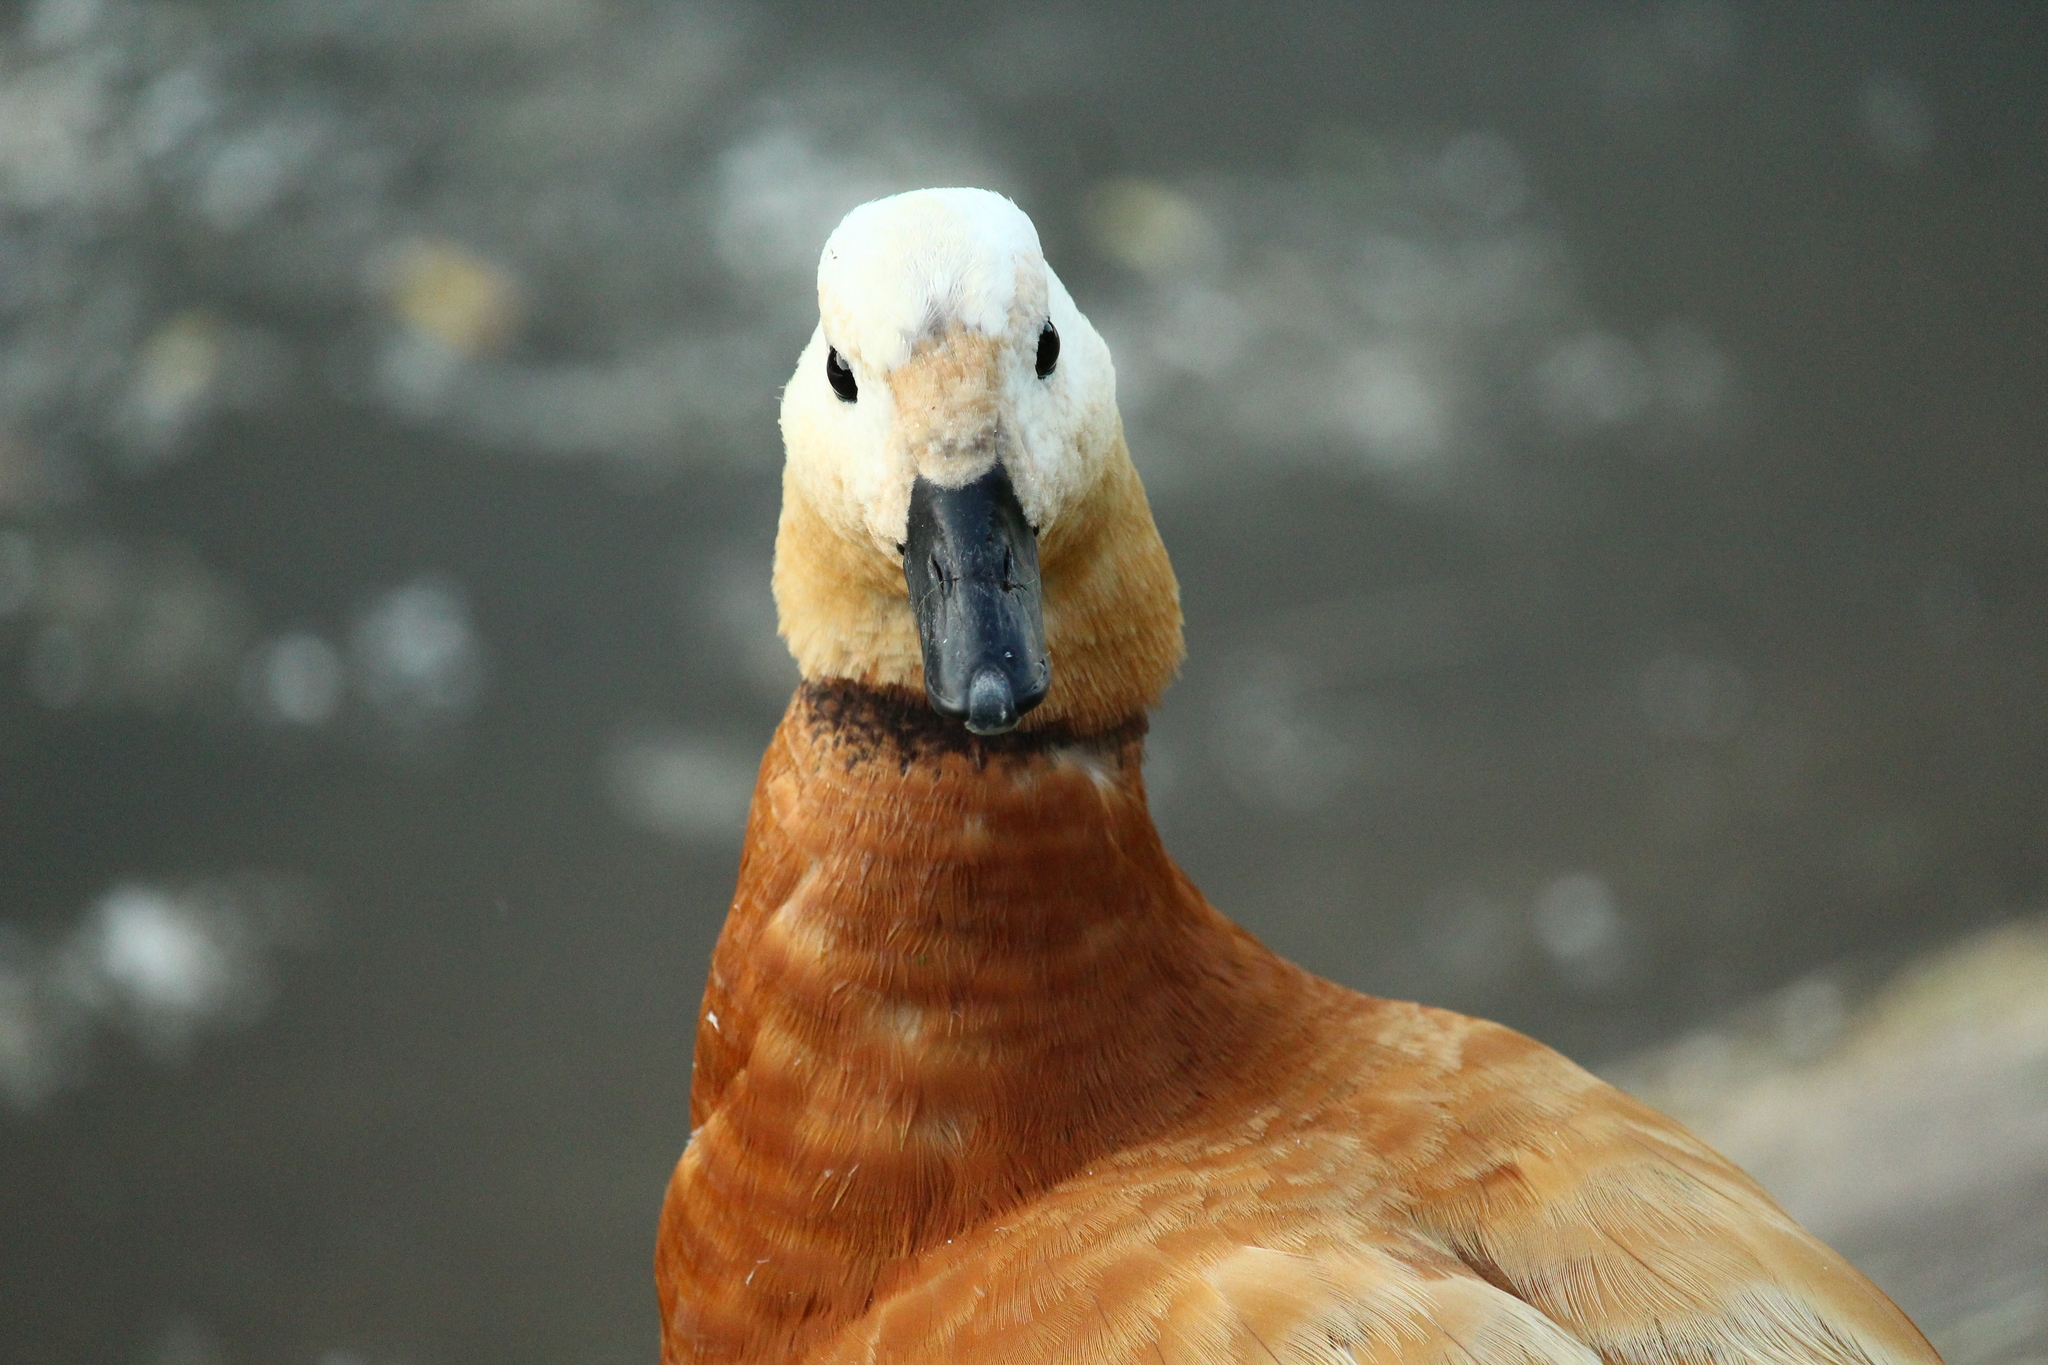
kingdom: Animalia
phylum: Chordata
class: Aves
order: Anseriformes
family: Anatidae
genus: Tadorna
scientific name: Tadorna ferruginea
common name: Ruddy shelduck
